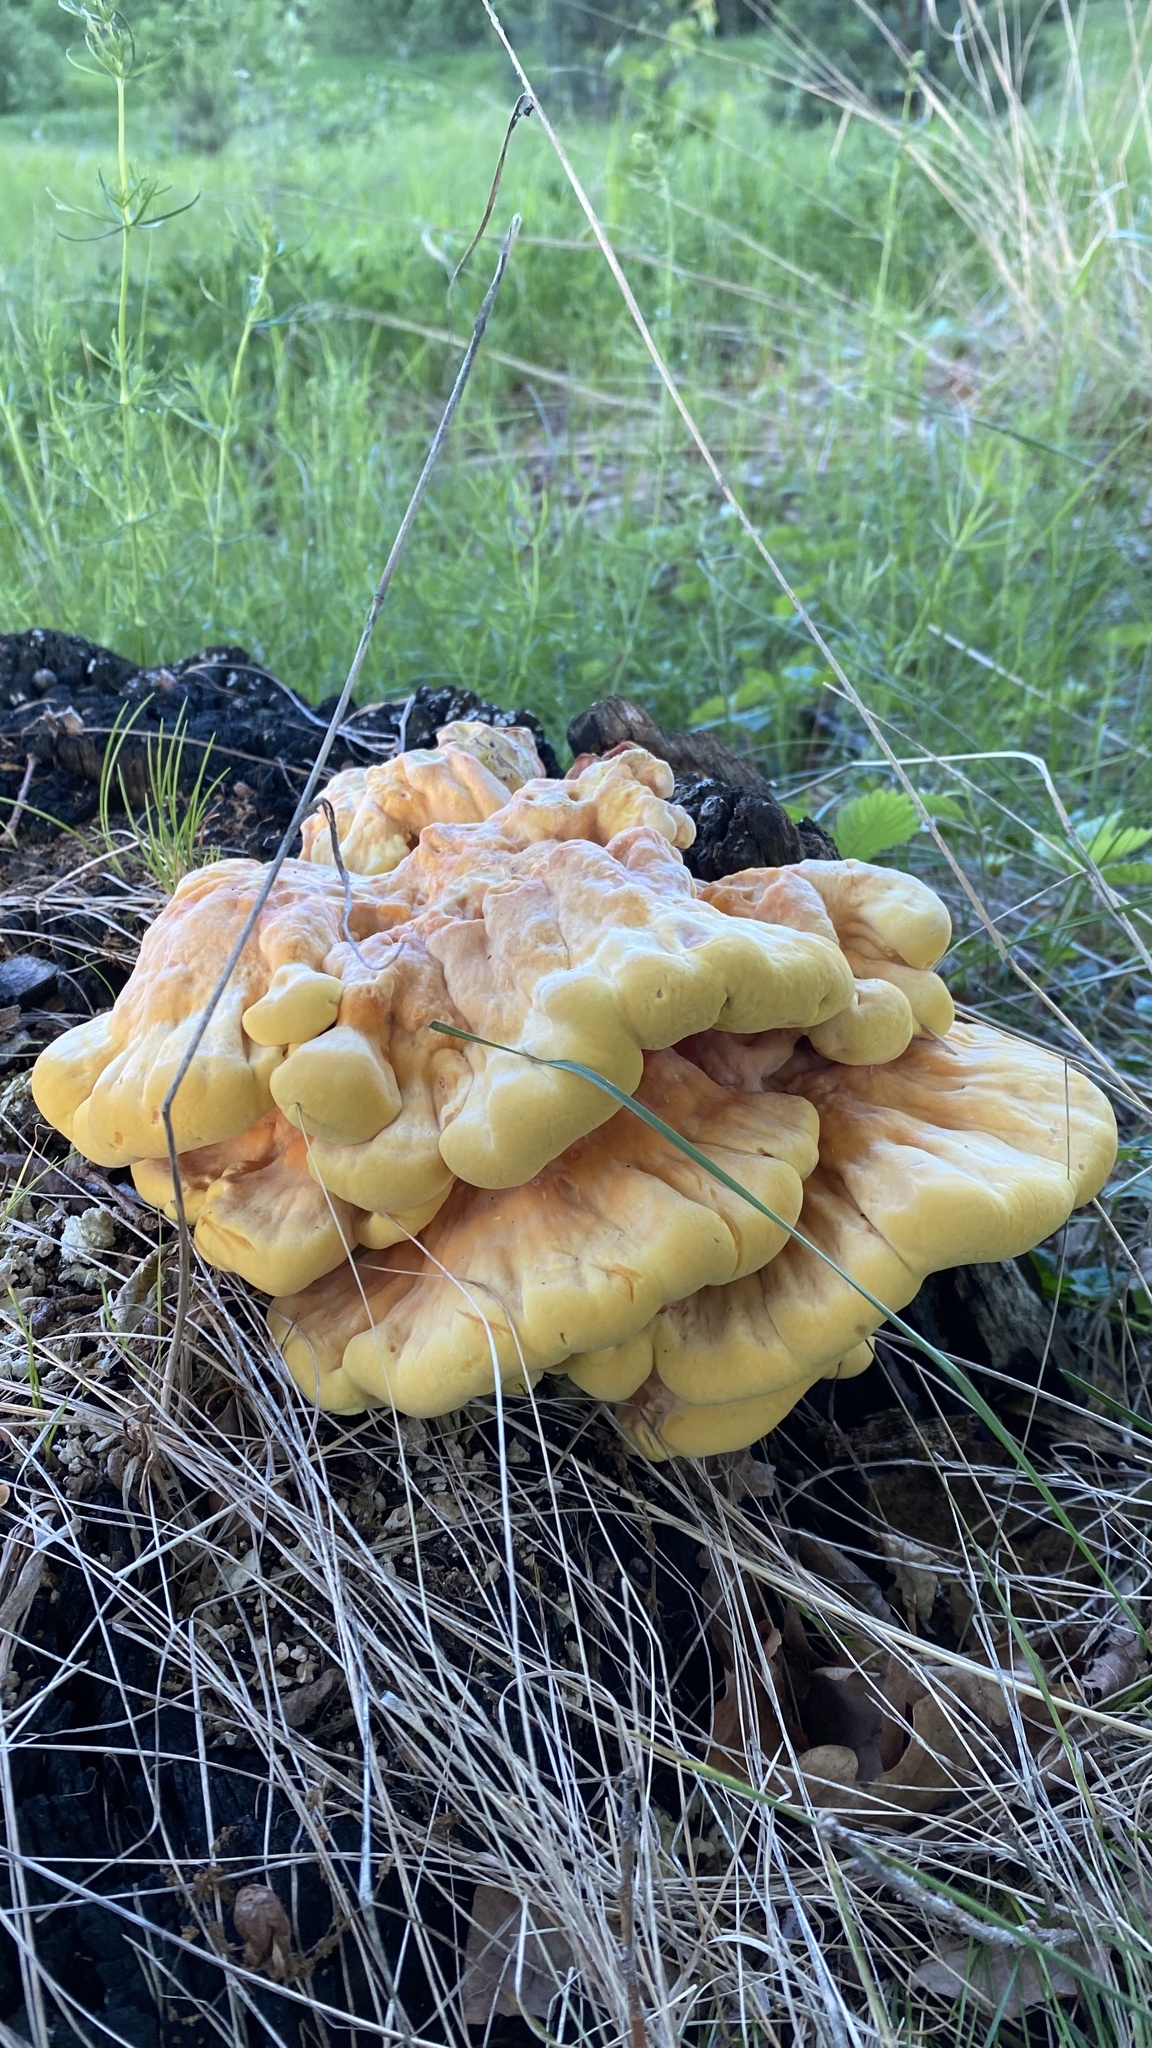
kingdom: Fungi
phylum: Basidiomycota
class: Agaricomycetes
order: Polyporales
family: Laetiporaceae
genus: Laetiporus
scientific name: Laetiporus sulphureus
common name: Chicken of the woods
